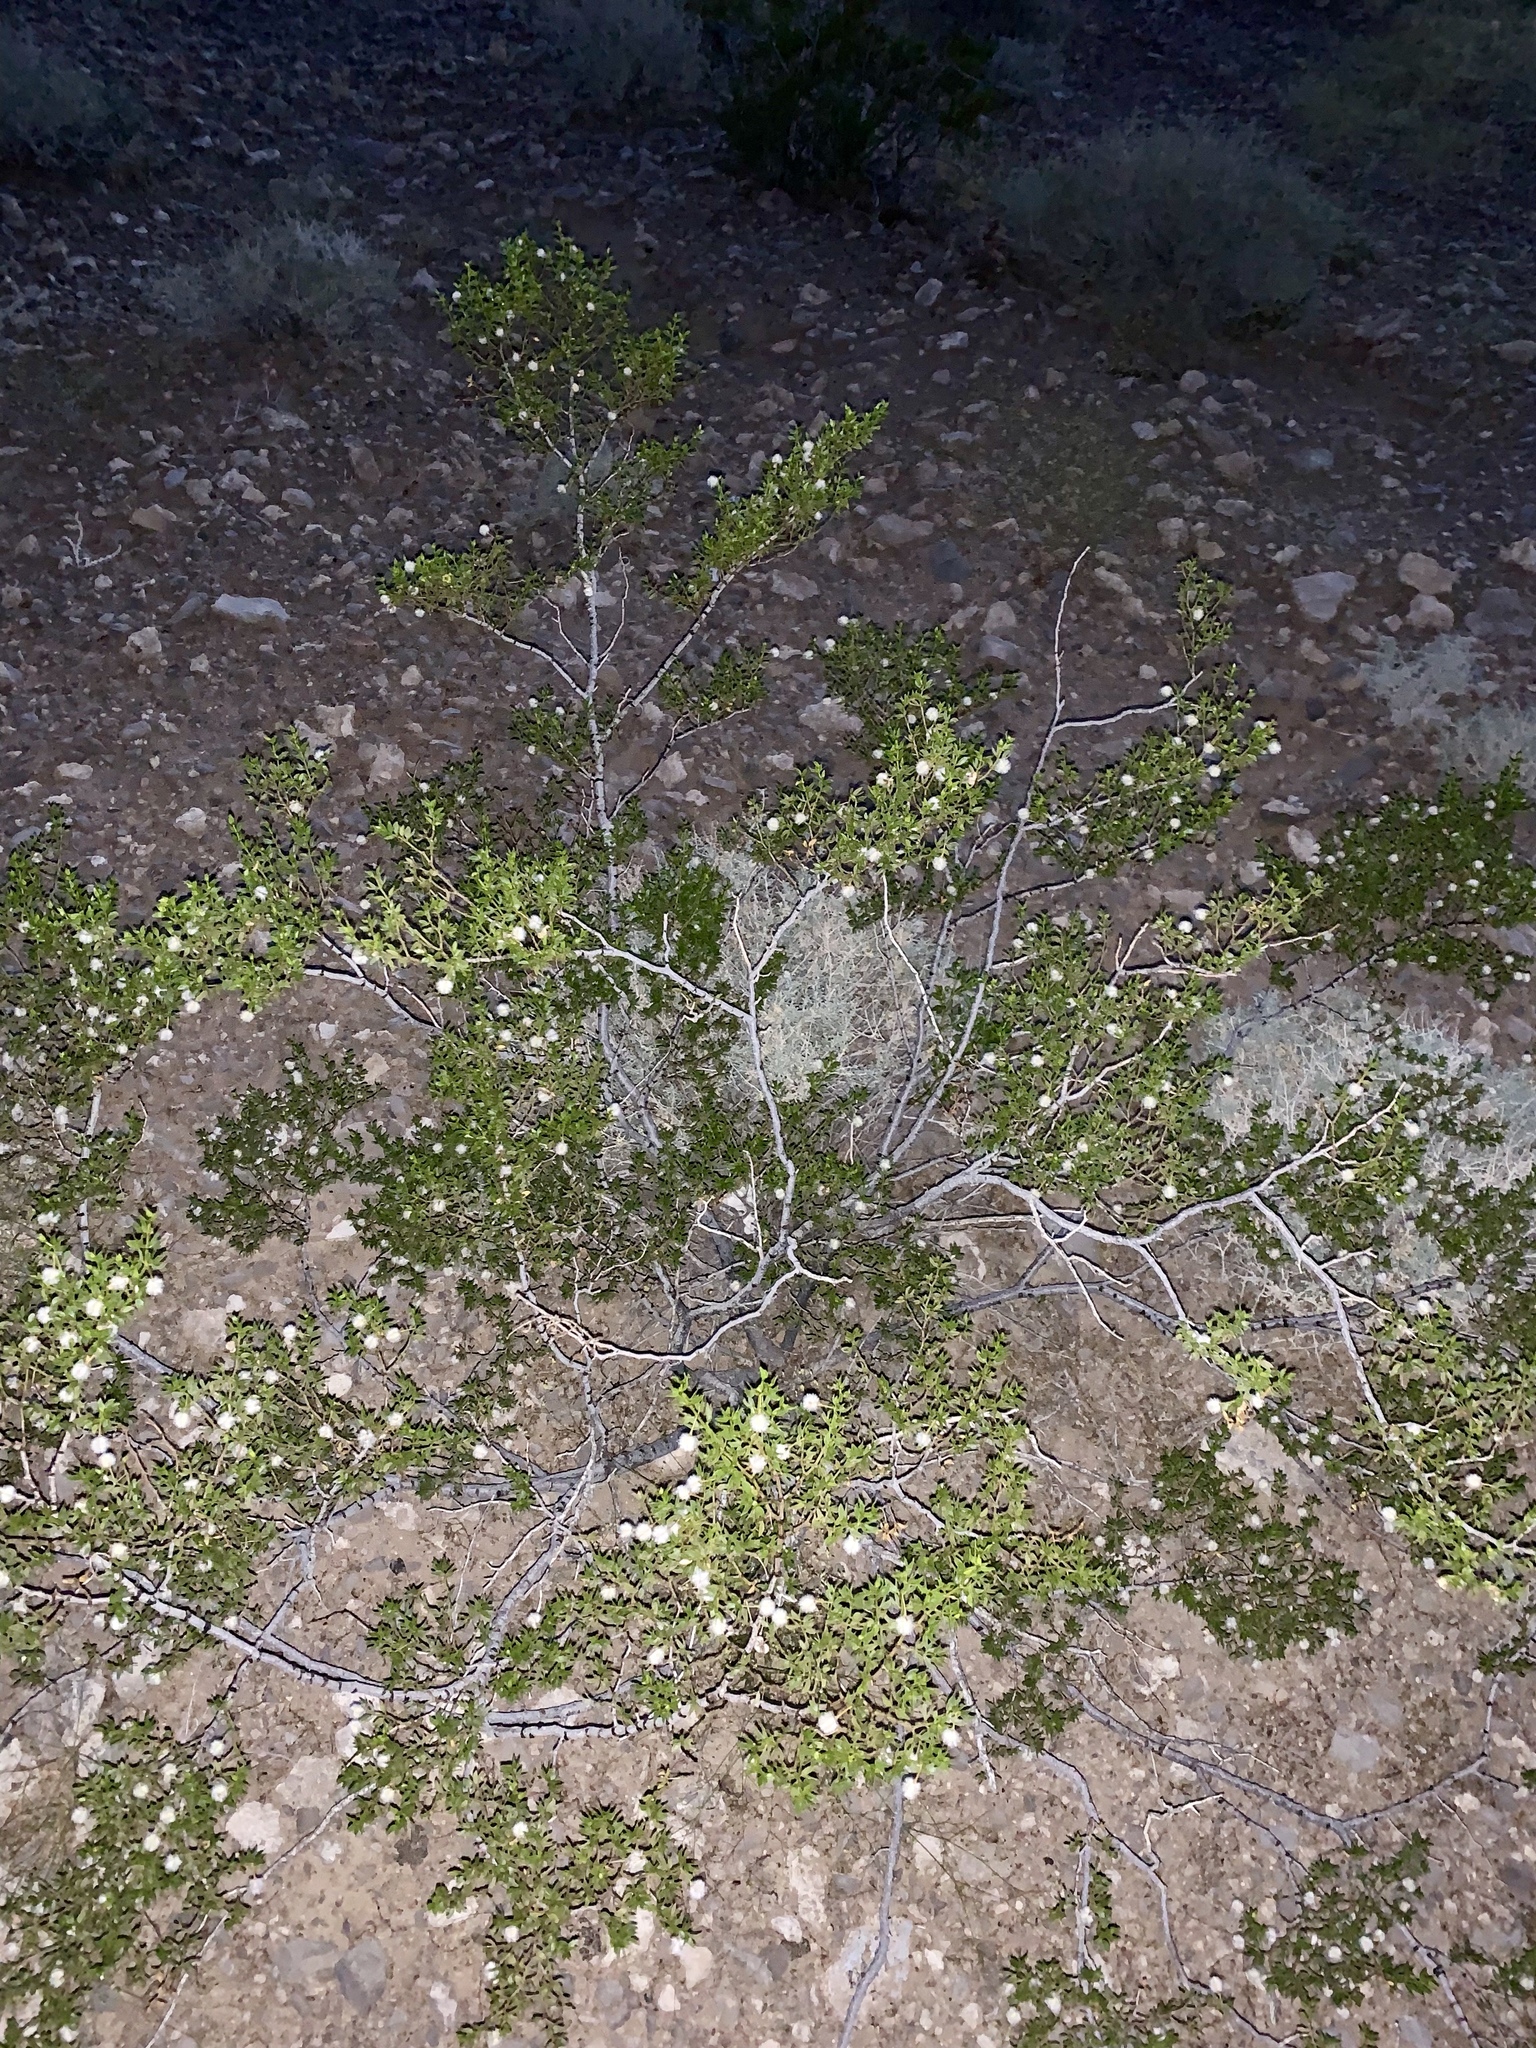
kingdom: Plantae
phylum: Tracheophyta
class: Magnoliopsida
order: Zygophyllales
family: Zygophyllaceae
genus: Larrea
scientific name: Larrea tridentata
